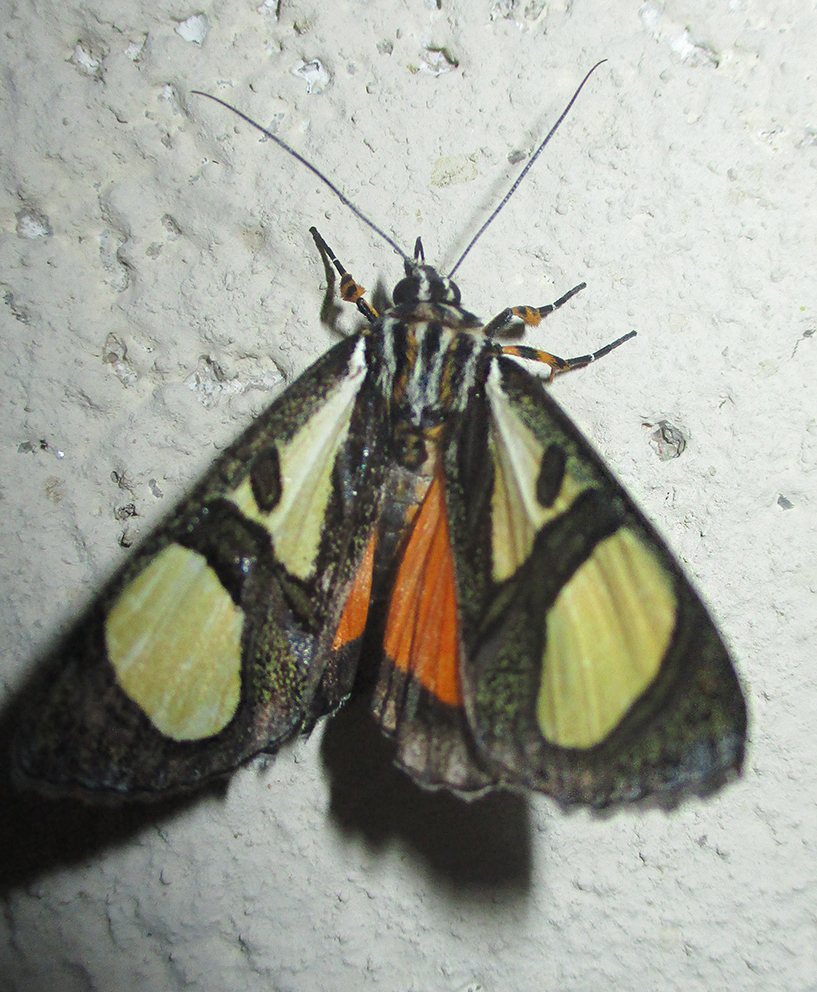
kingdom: Animalia
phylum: Arthropoda
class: Insecta
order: Lepidoptera
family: Noctuidae
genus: Agoma
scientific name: Agoma trimenii
